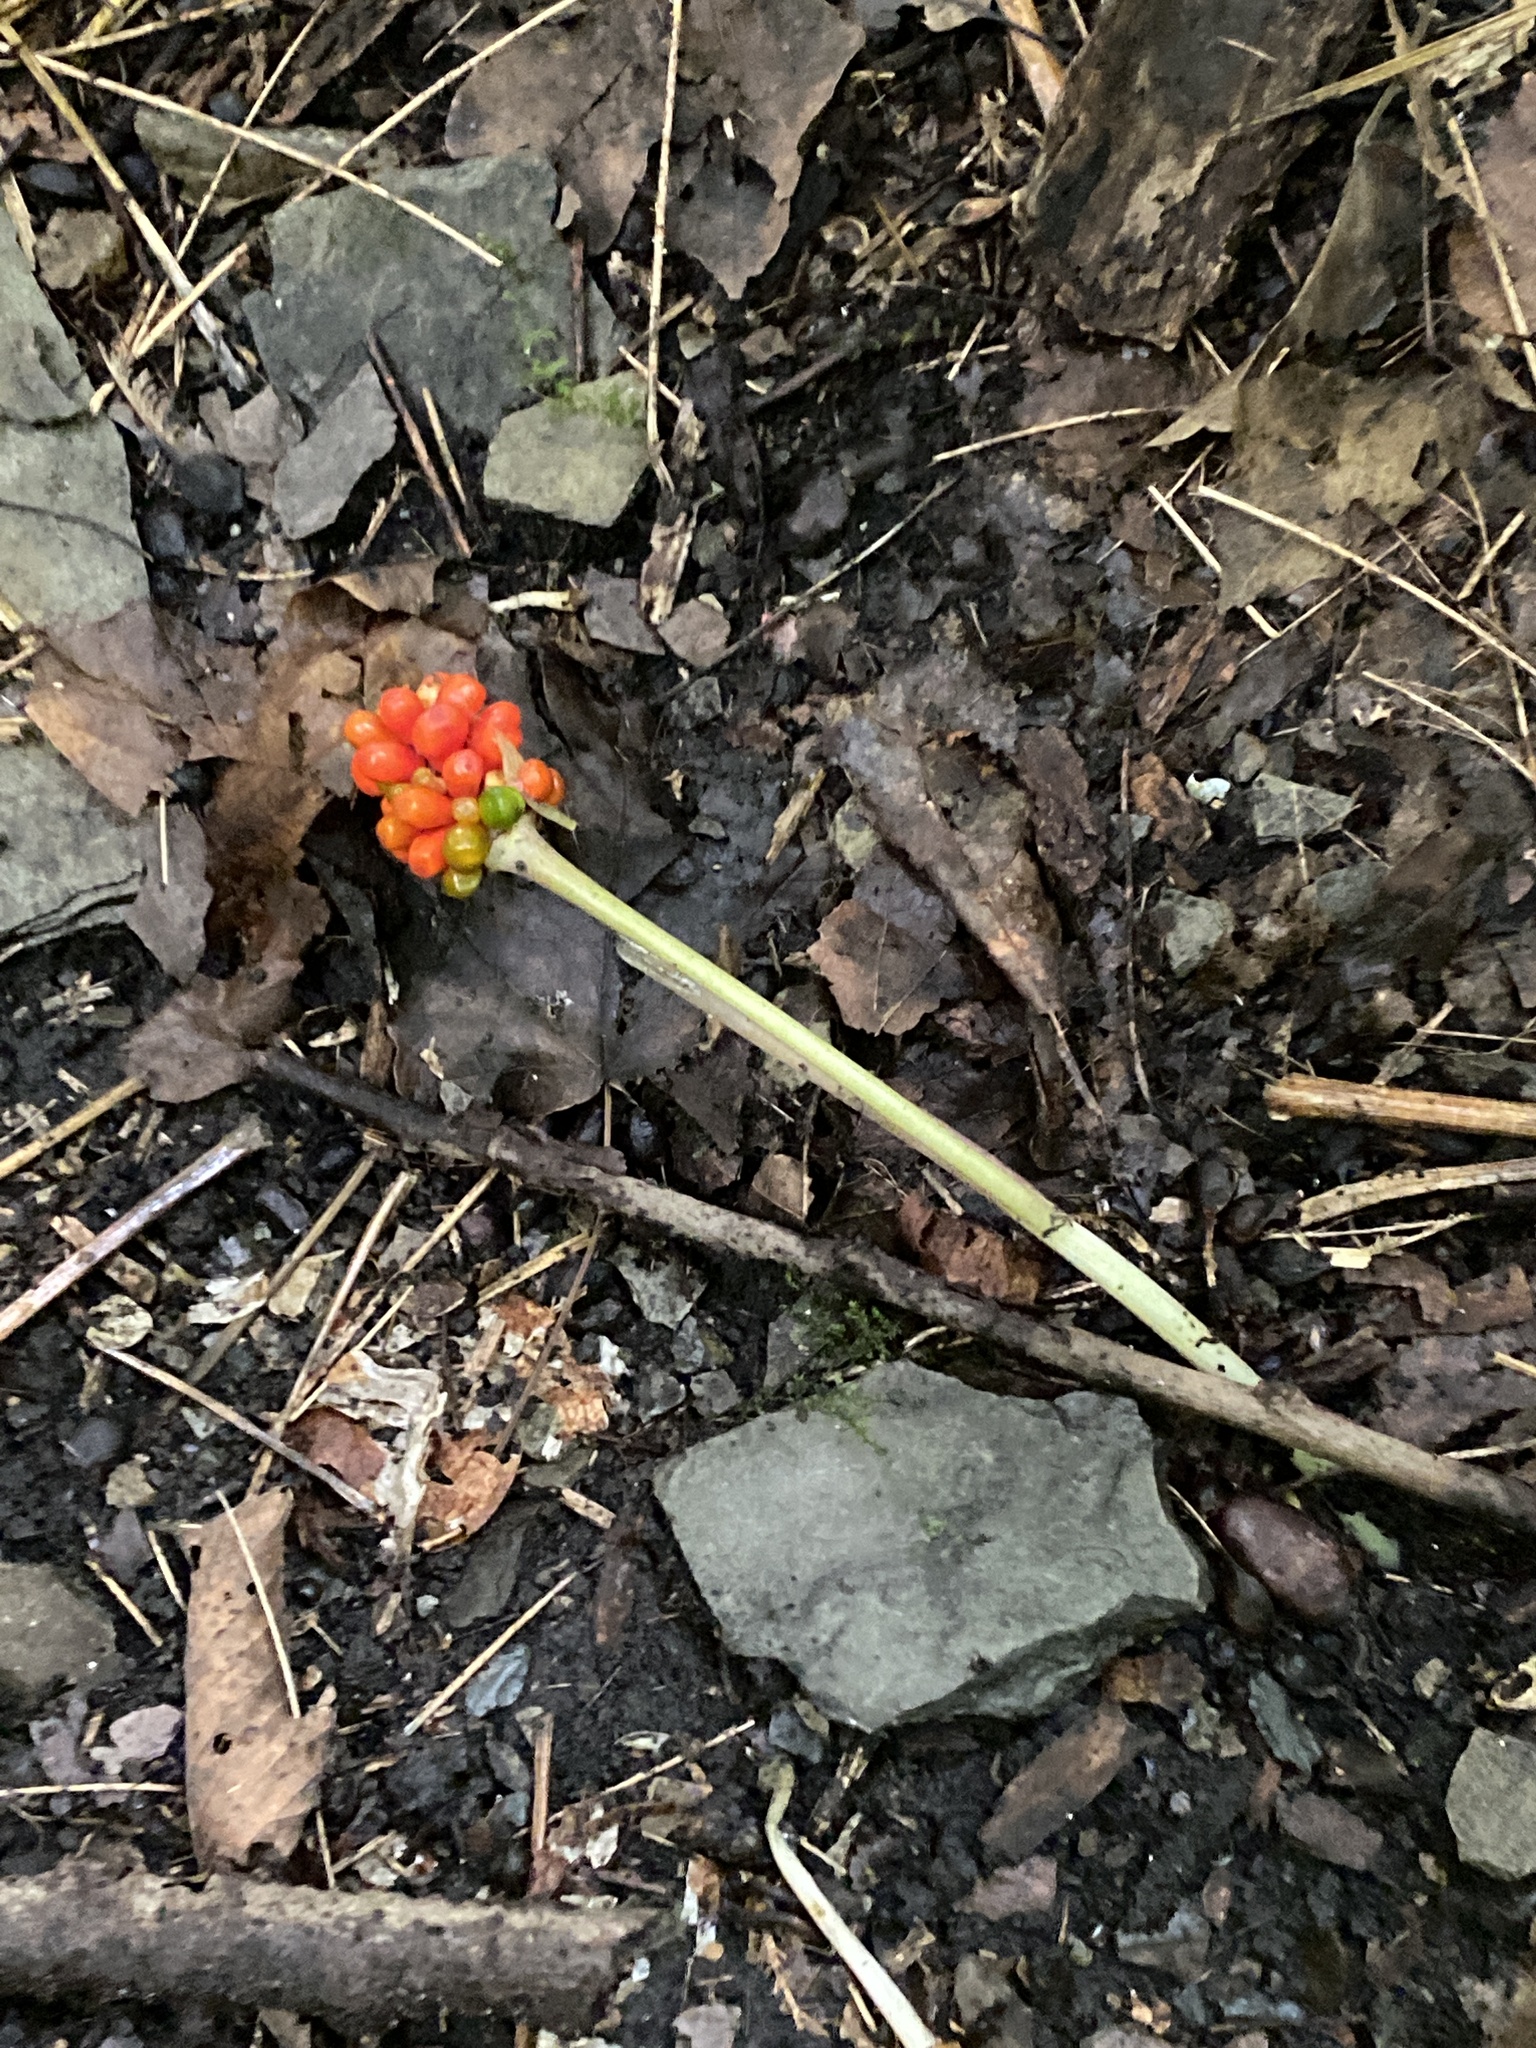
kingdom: Plantae
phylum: Tracheophyta
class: Liliopsida
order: Alismatales
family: Araceae
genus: Arisaema
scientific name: Arisaema triphyllum
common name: Jack-in-the-pulpit
